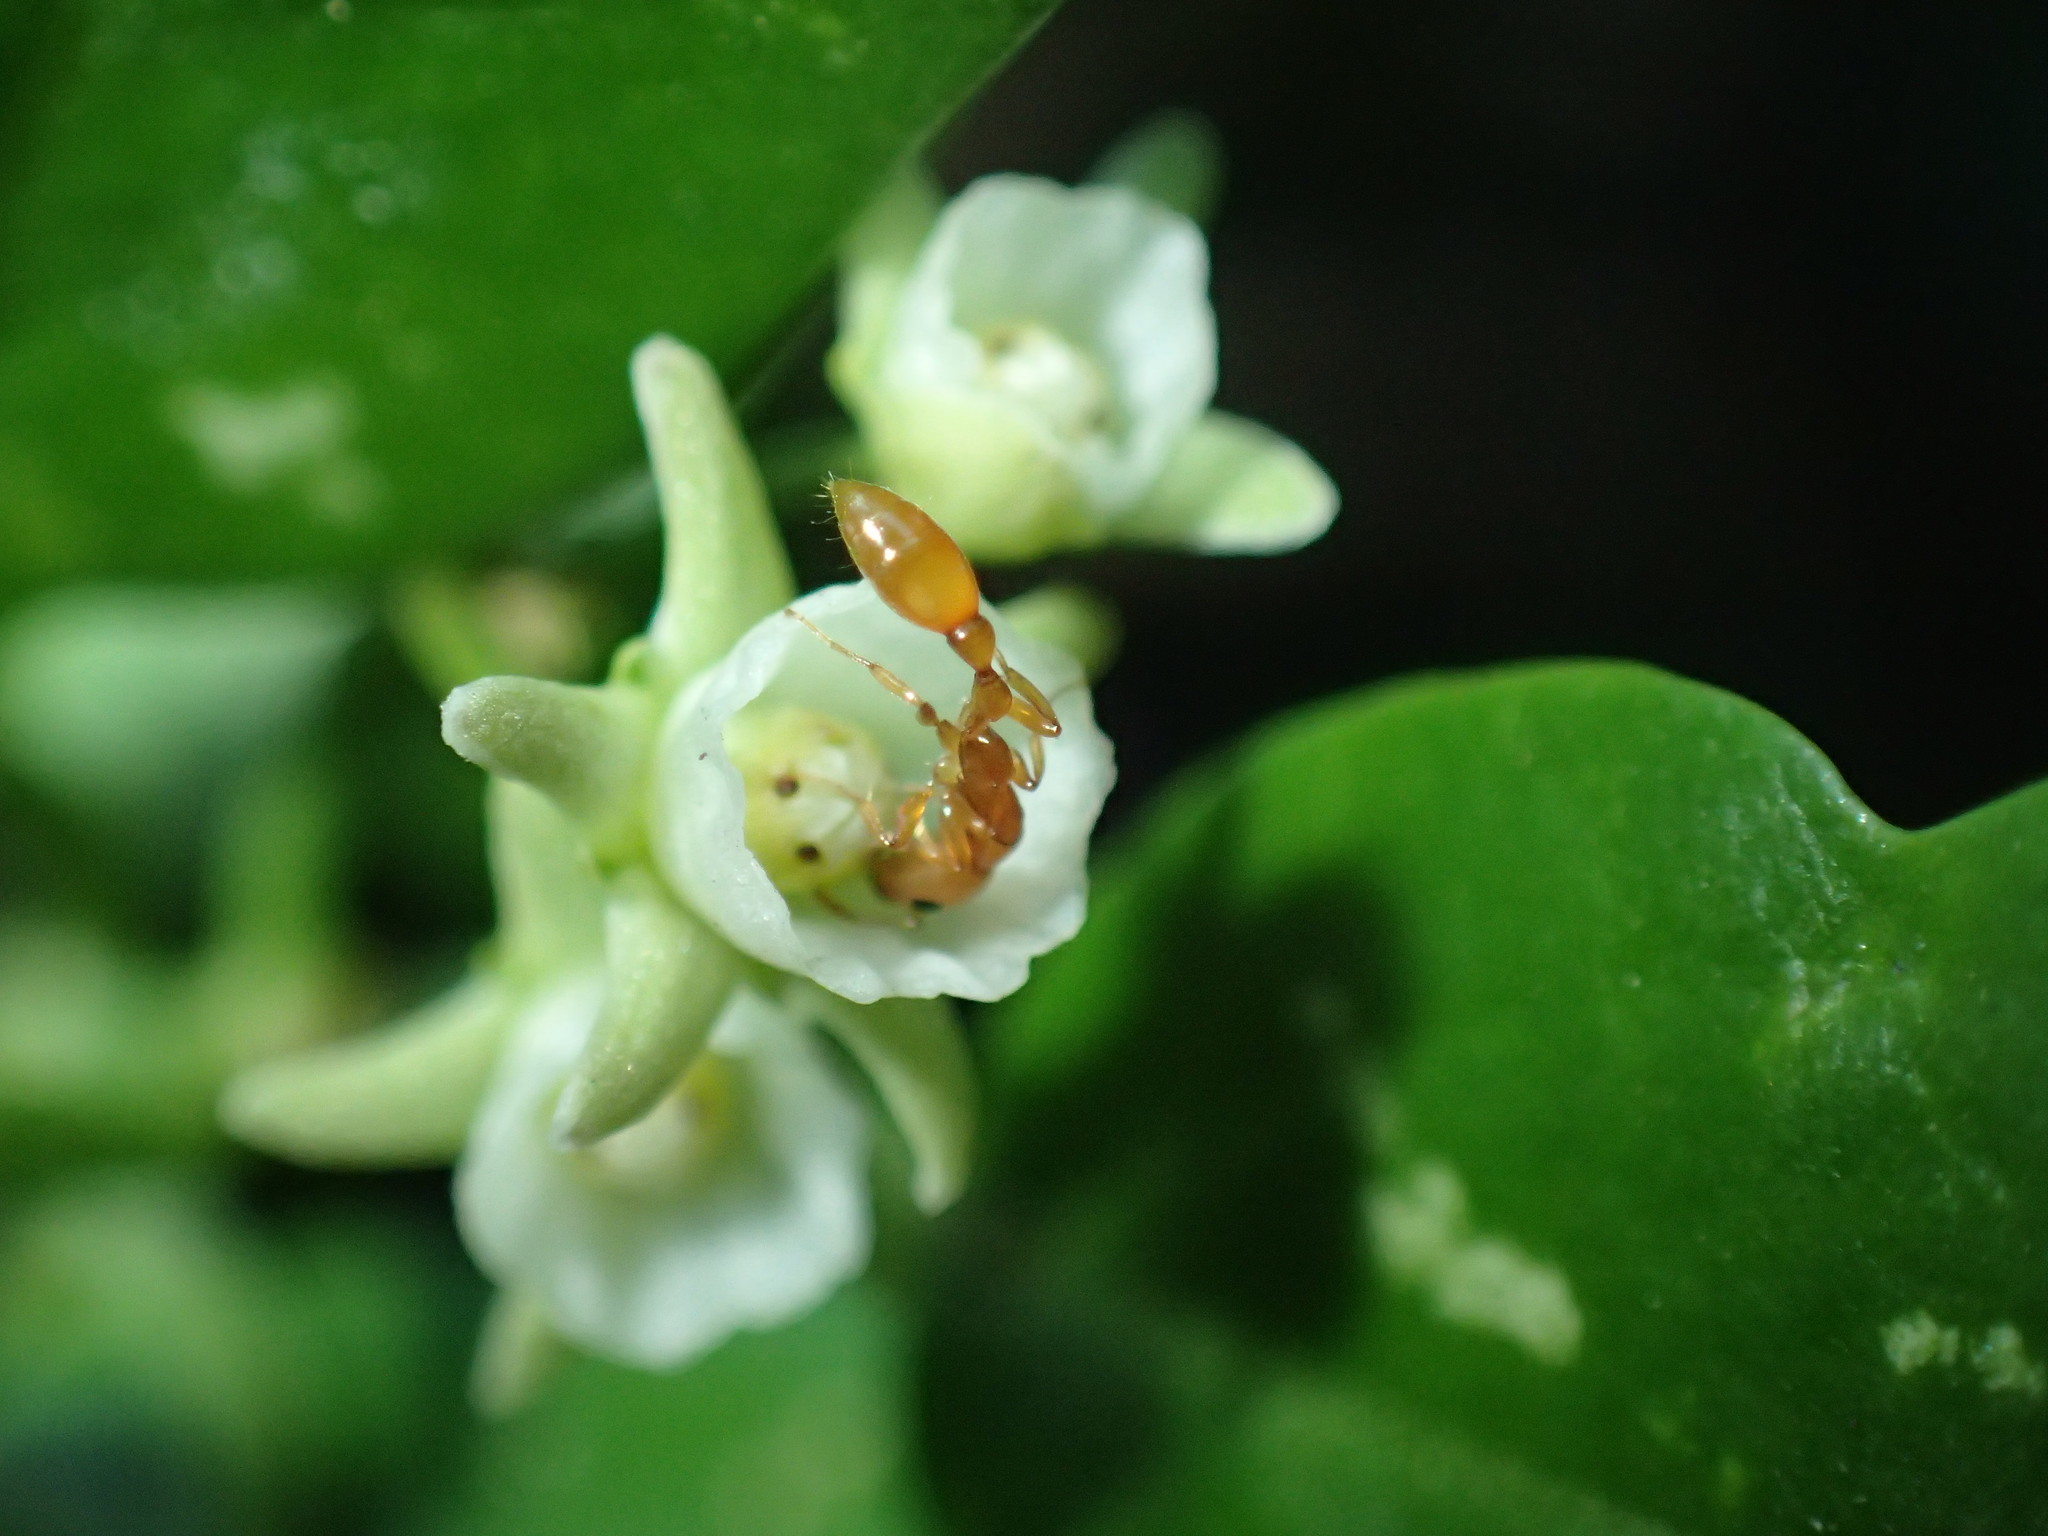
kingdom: Plantae
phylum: Tracheophyta
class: Magnoliopsida
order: Gentianales
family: Apocynaceae
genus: Cynanchum
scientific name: Cynanchum ellipticum
